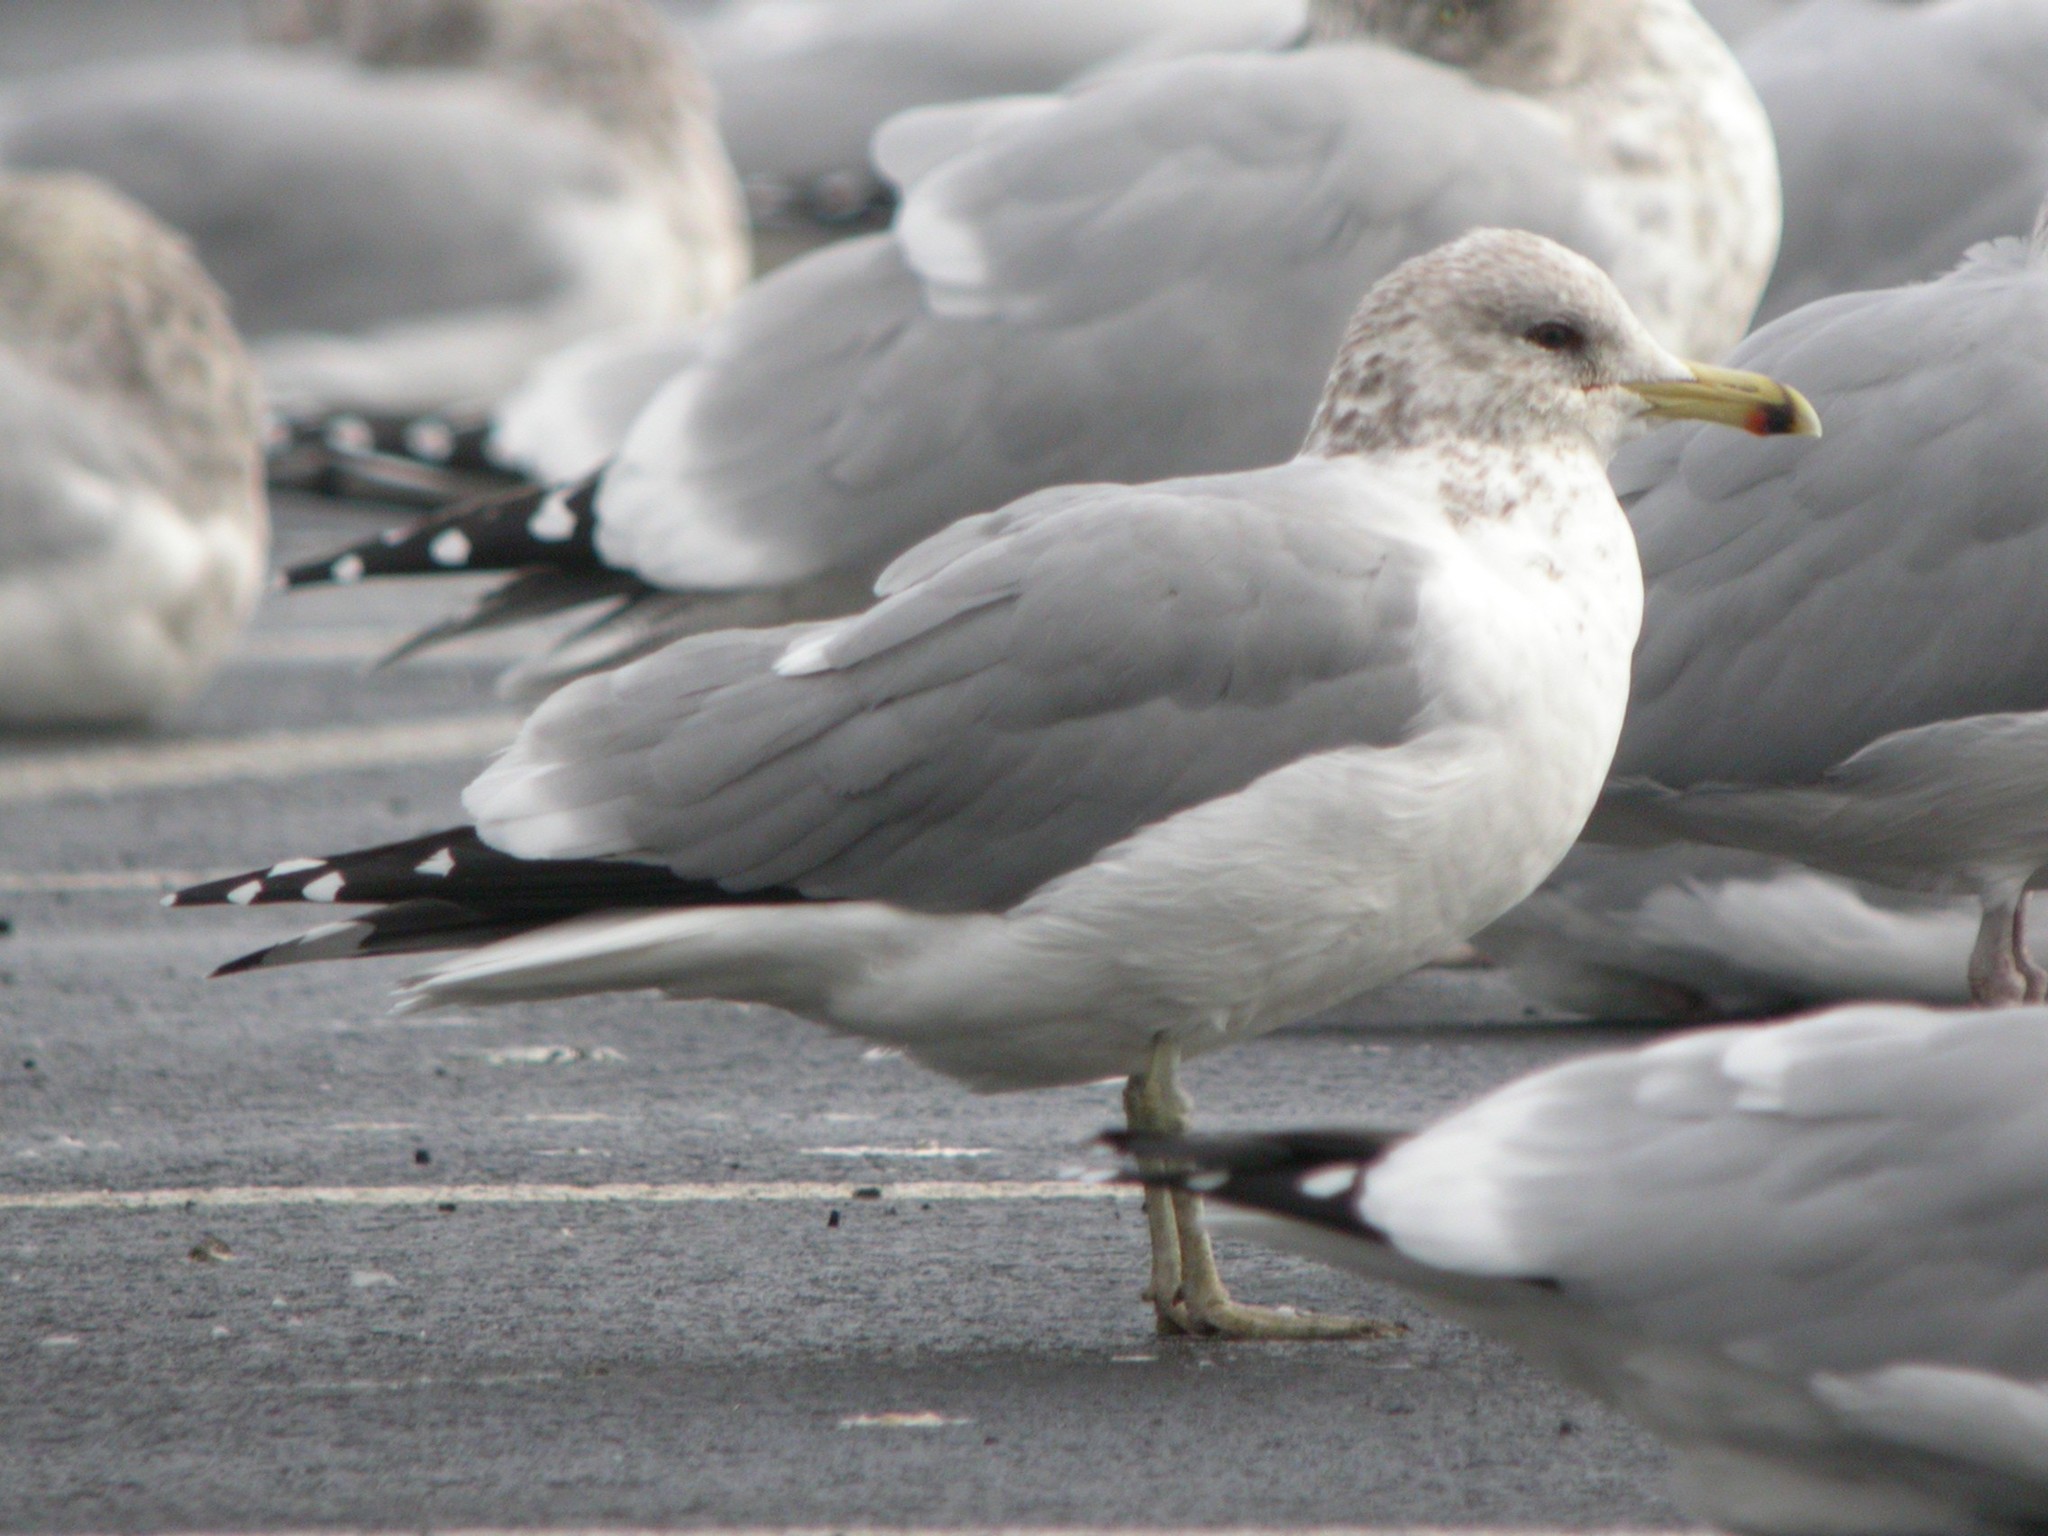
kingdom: Animalia
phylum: Chordata
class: Aves
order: Charadriiformes
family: Laridae
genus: Larus
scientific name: Larus californicus
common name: California gull
